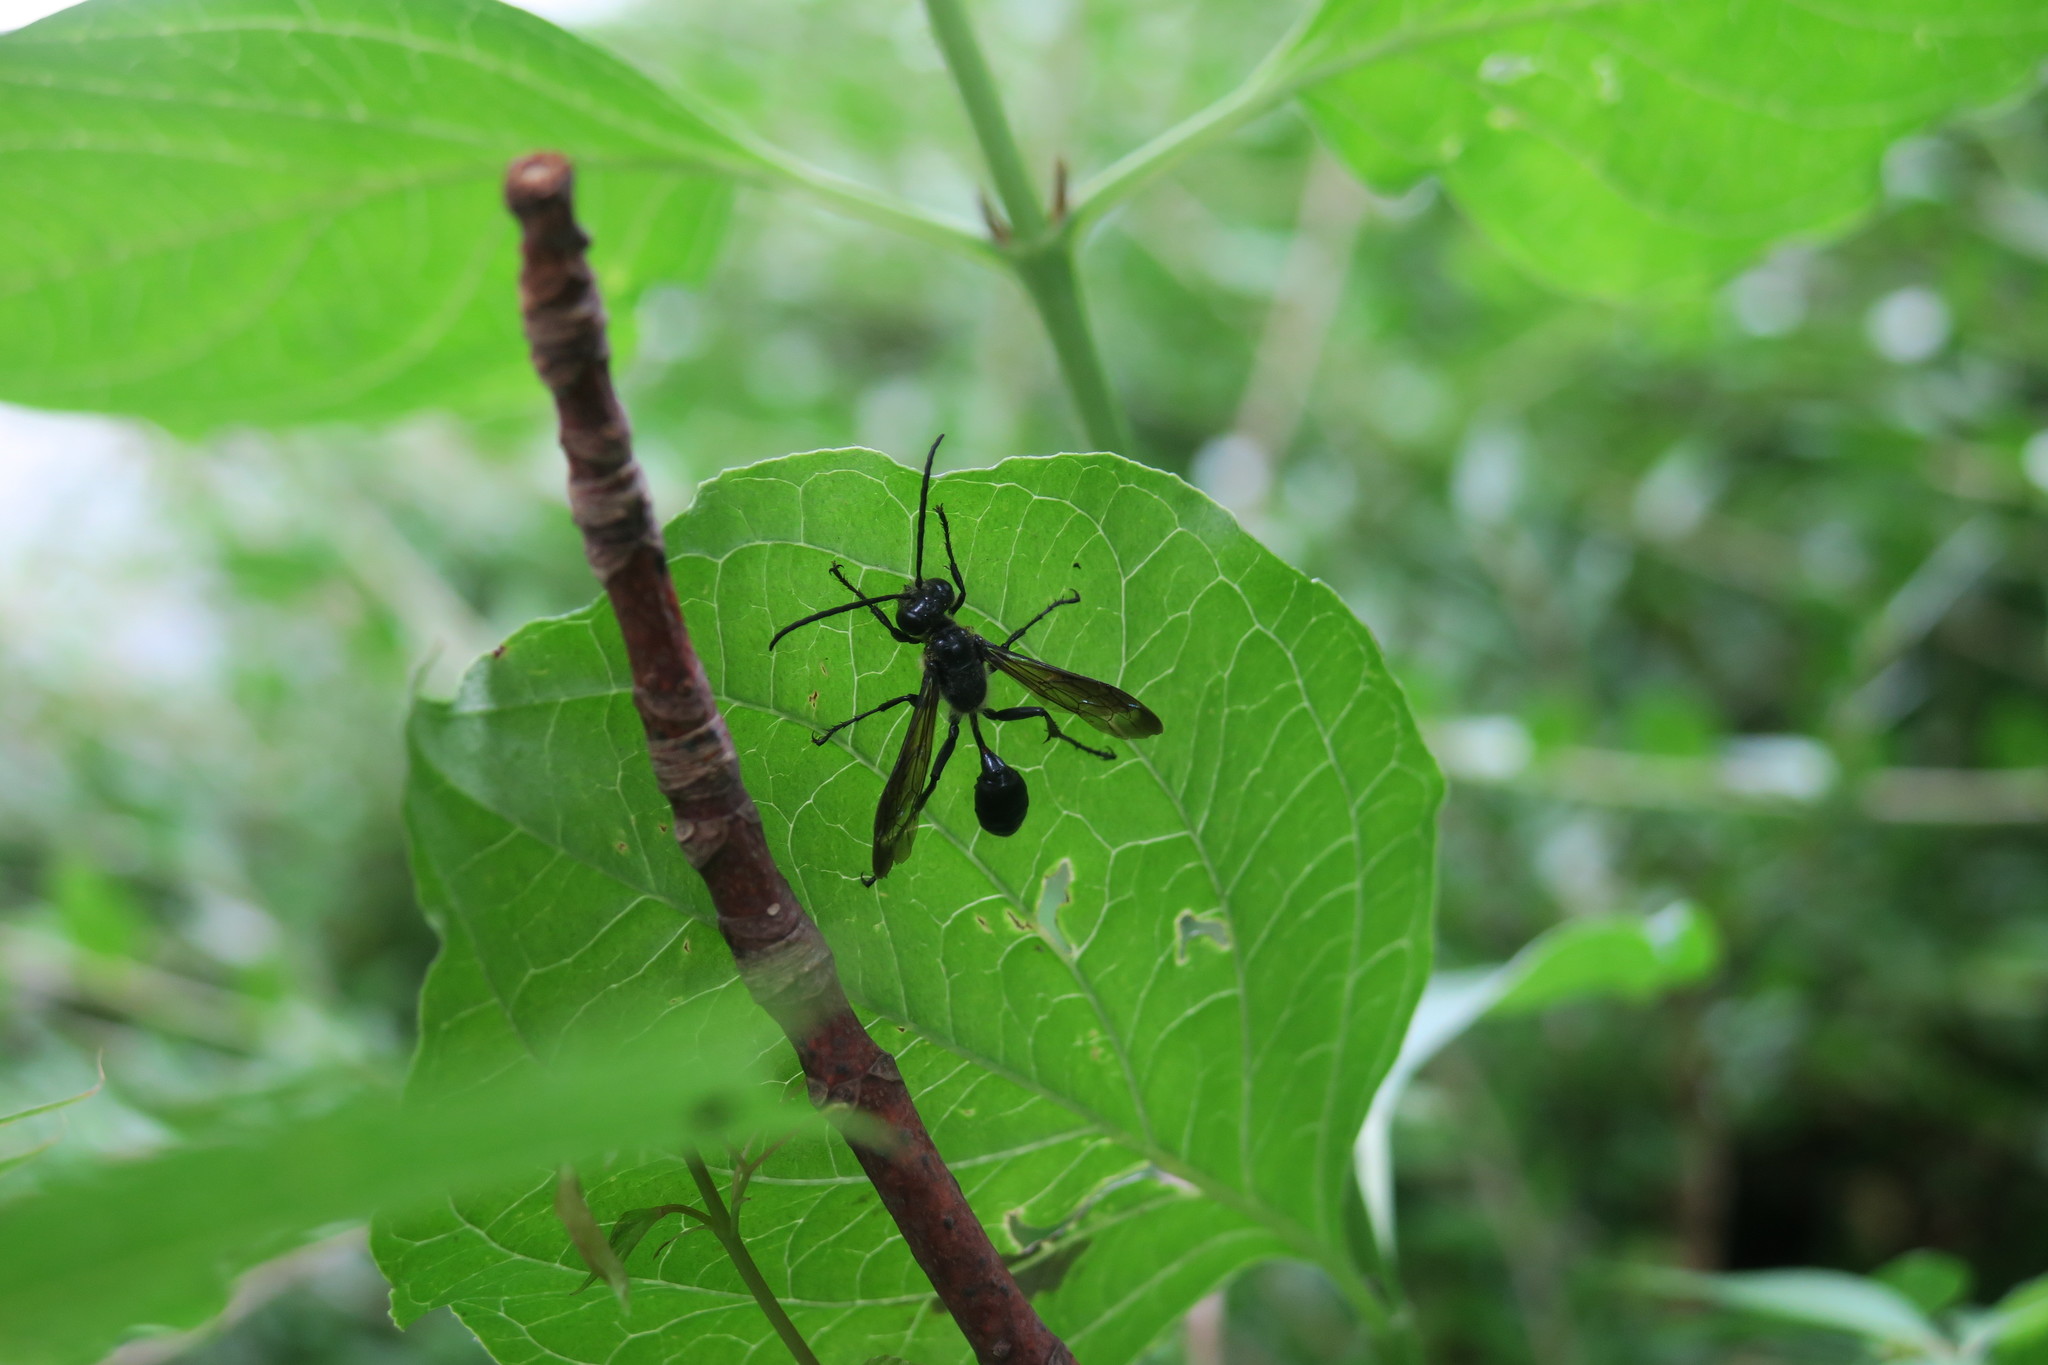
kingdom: Animalia
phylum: Arthropoda
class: Insecta
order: Hymenoptera
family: Sphecidae
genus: Isodontia
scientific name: Isodontia mexicana
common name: Mud dauber
